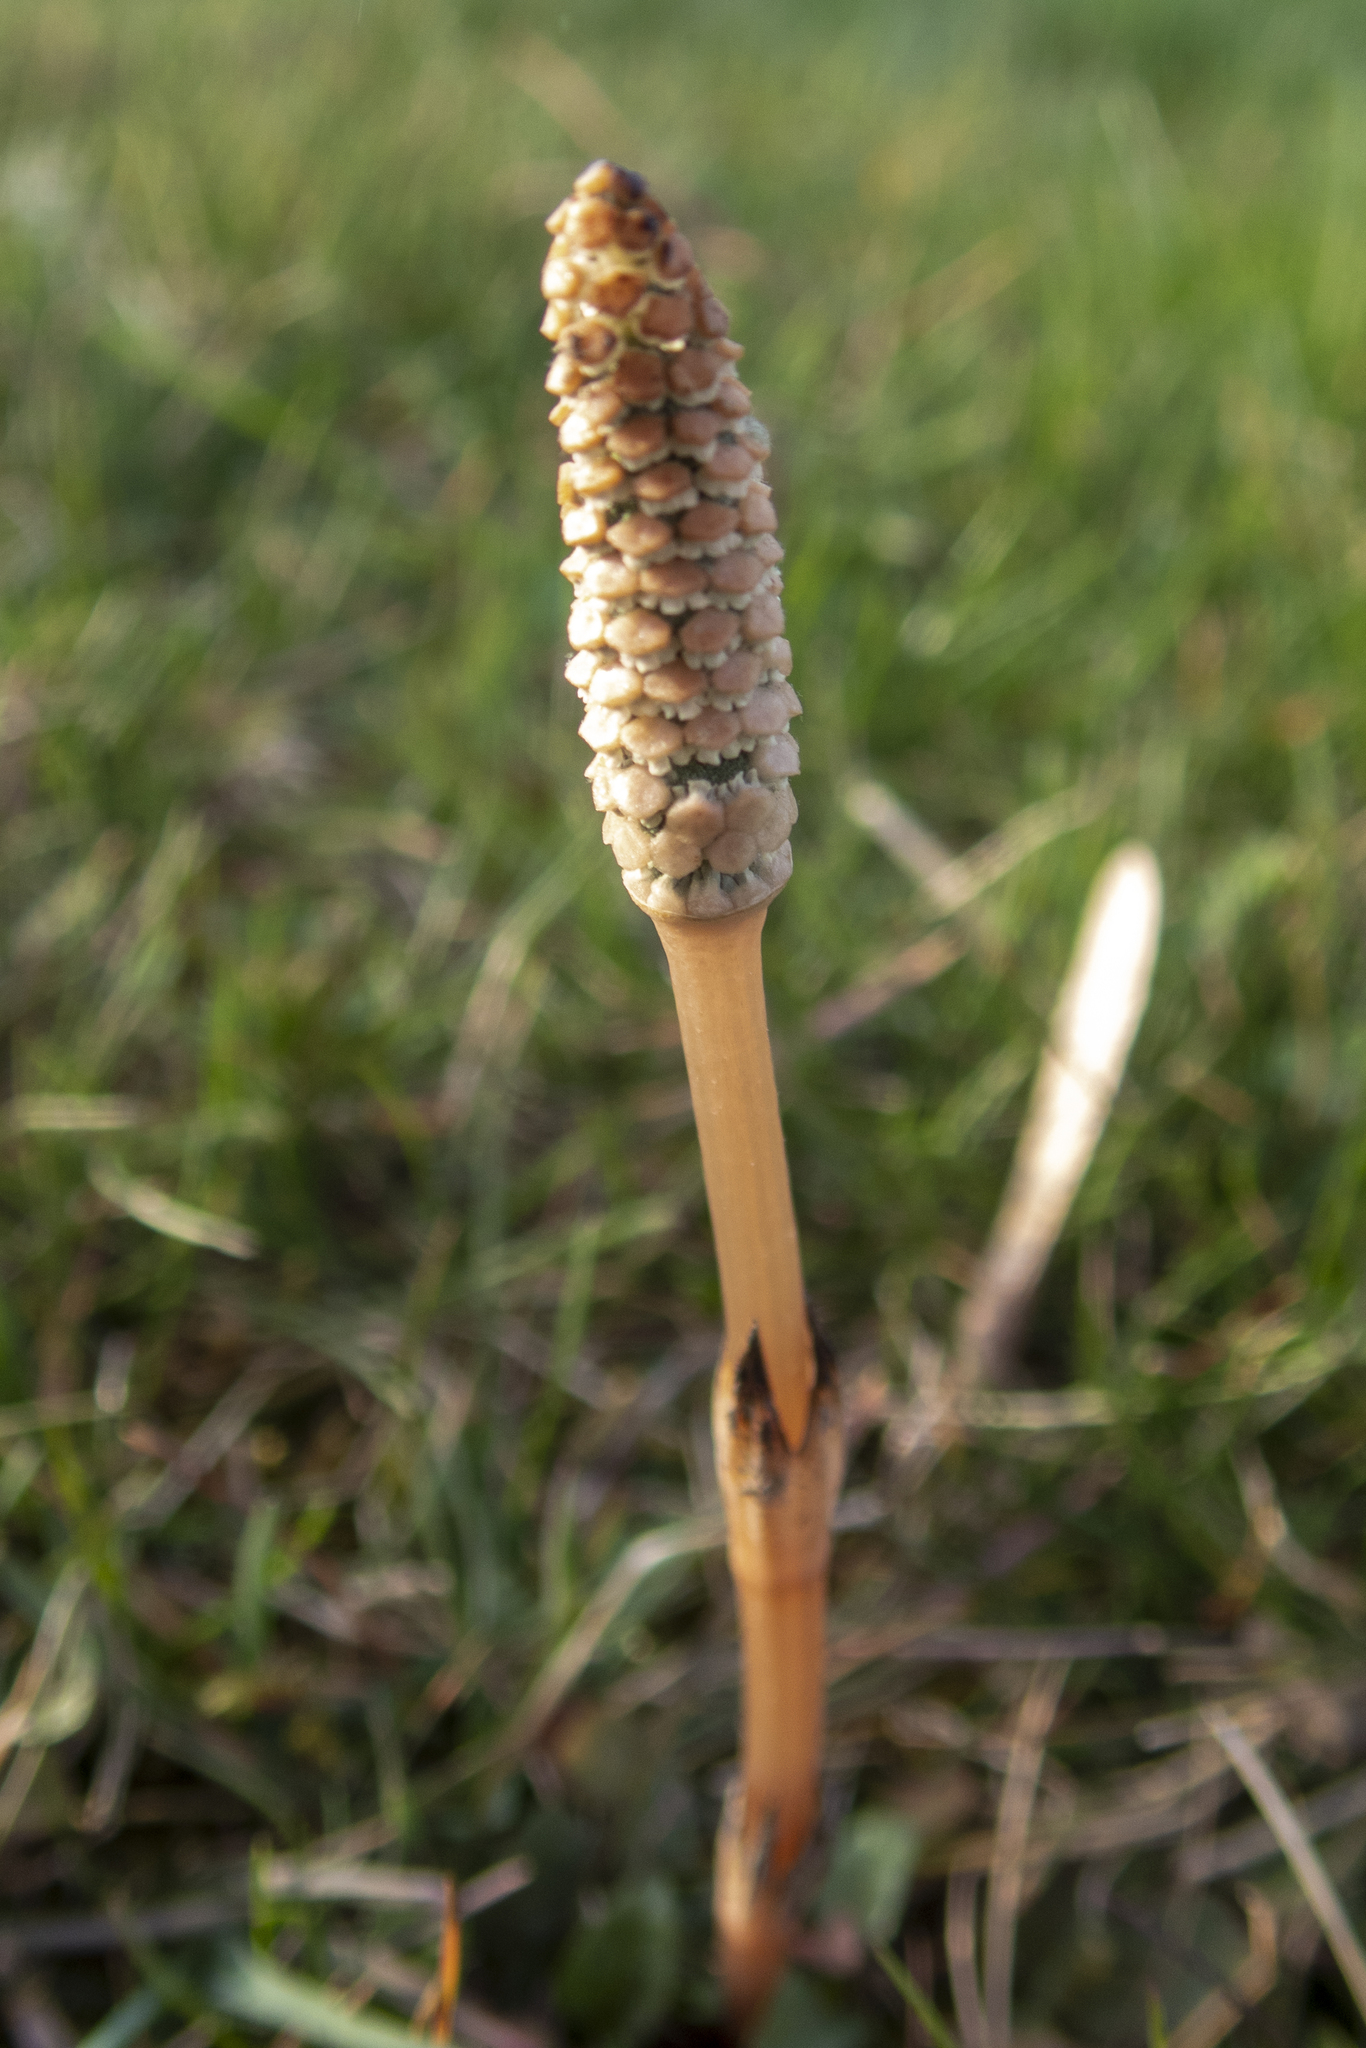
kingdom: Plantae
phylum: Tracheophyta
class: Polypodiopsida
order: Equisetales
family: Equisetaceae
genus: Equisetum
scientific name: Equisetum arvense
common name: Field horsetail
